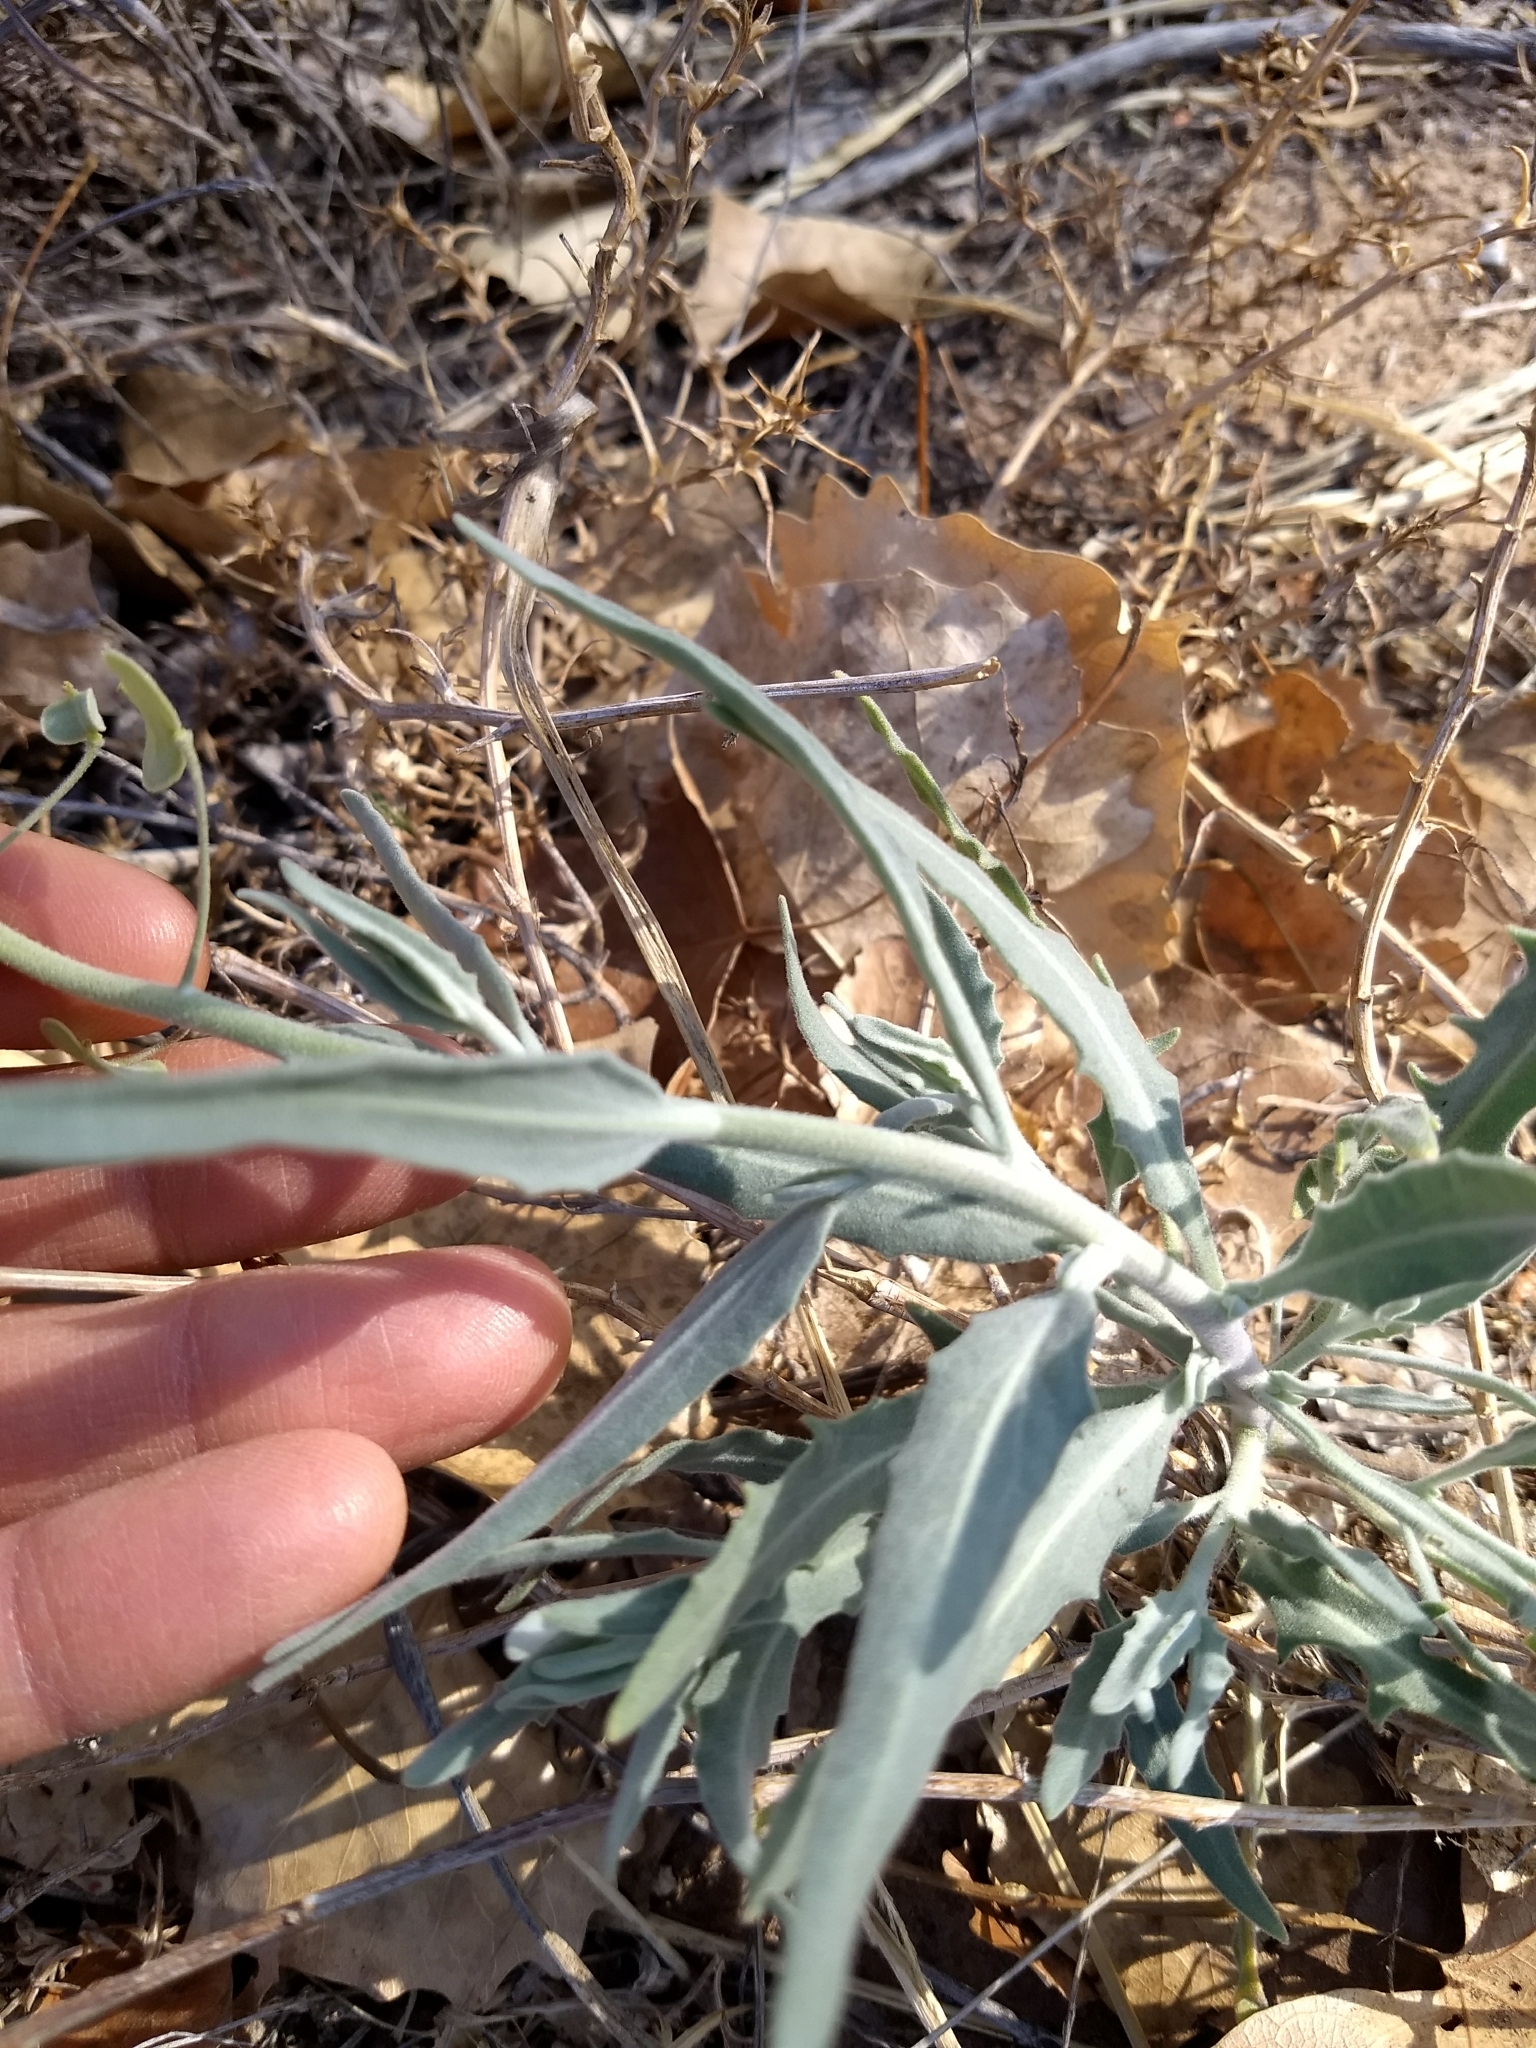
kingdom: Plantae
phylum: Tracheophyta
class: Magnoliopsida
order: Brassicales
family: Brassicaceae
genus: Dimorphocarpa
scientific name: Dimorphocarpa wislizenii
